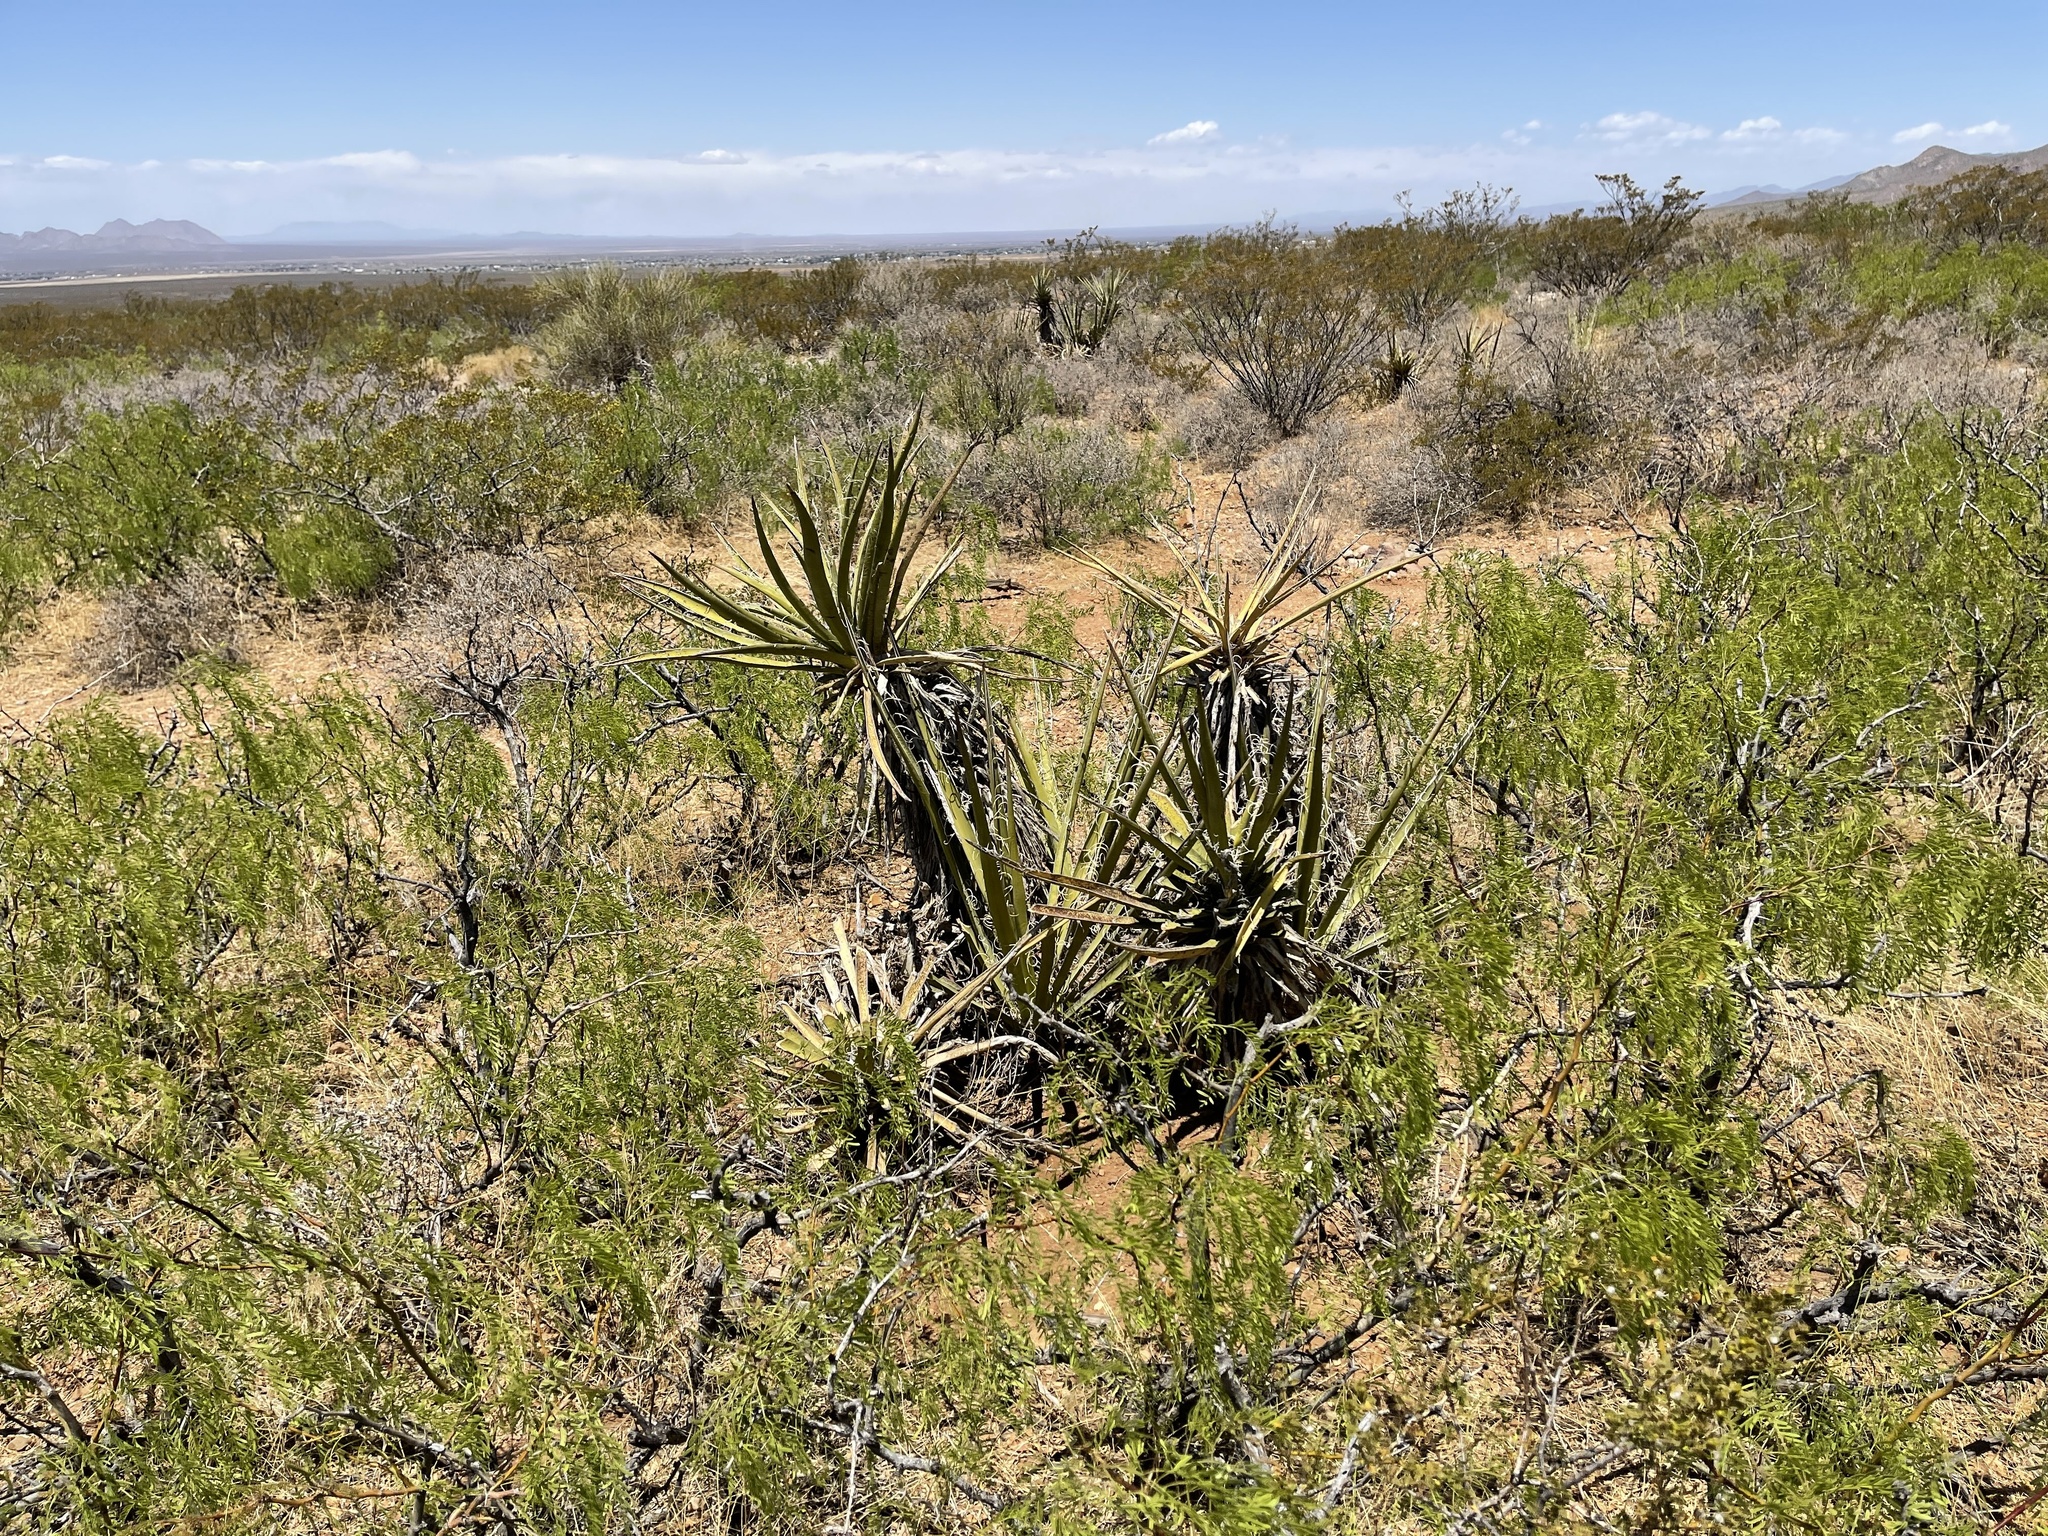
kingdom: Plantae
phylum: Tracheophyta
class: Liliopsida
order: Asparagales
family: Asparagaceae
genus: Yucca
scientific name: Yucca baccata
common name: Banana yucca
